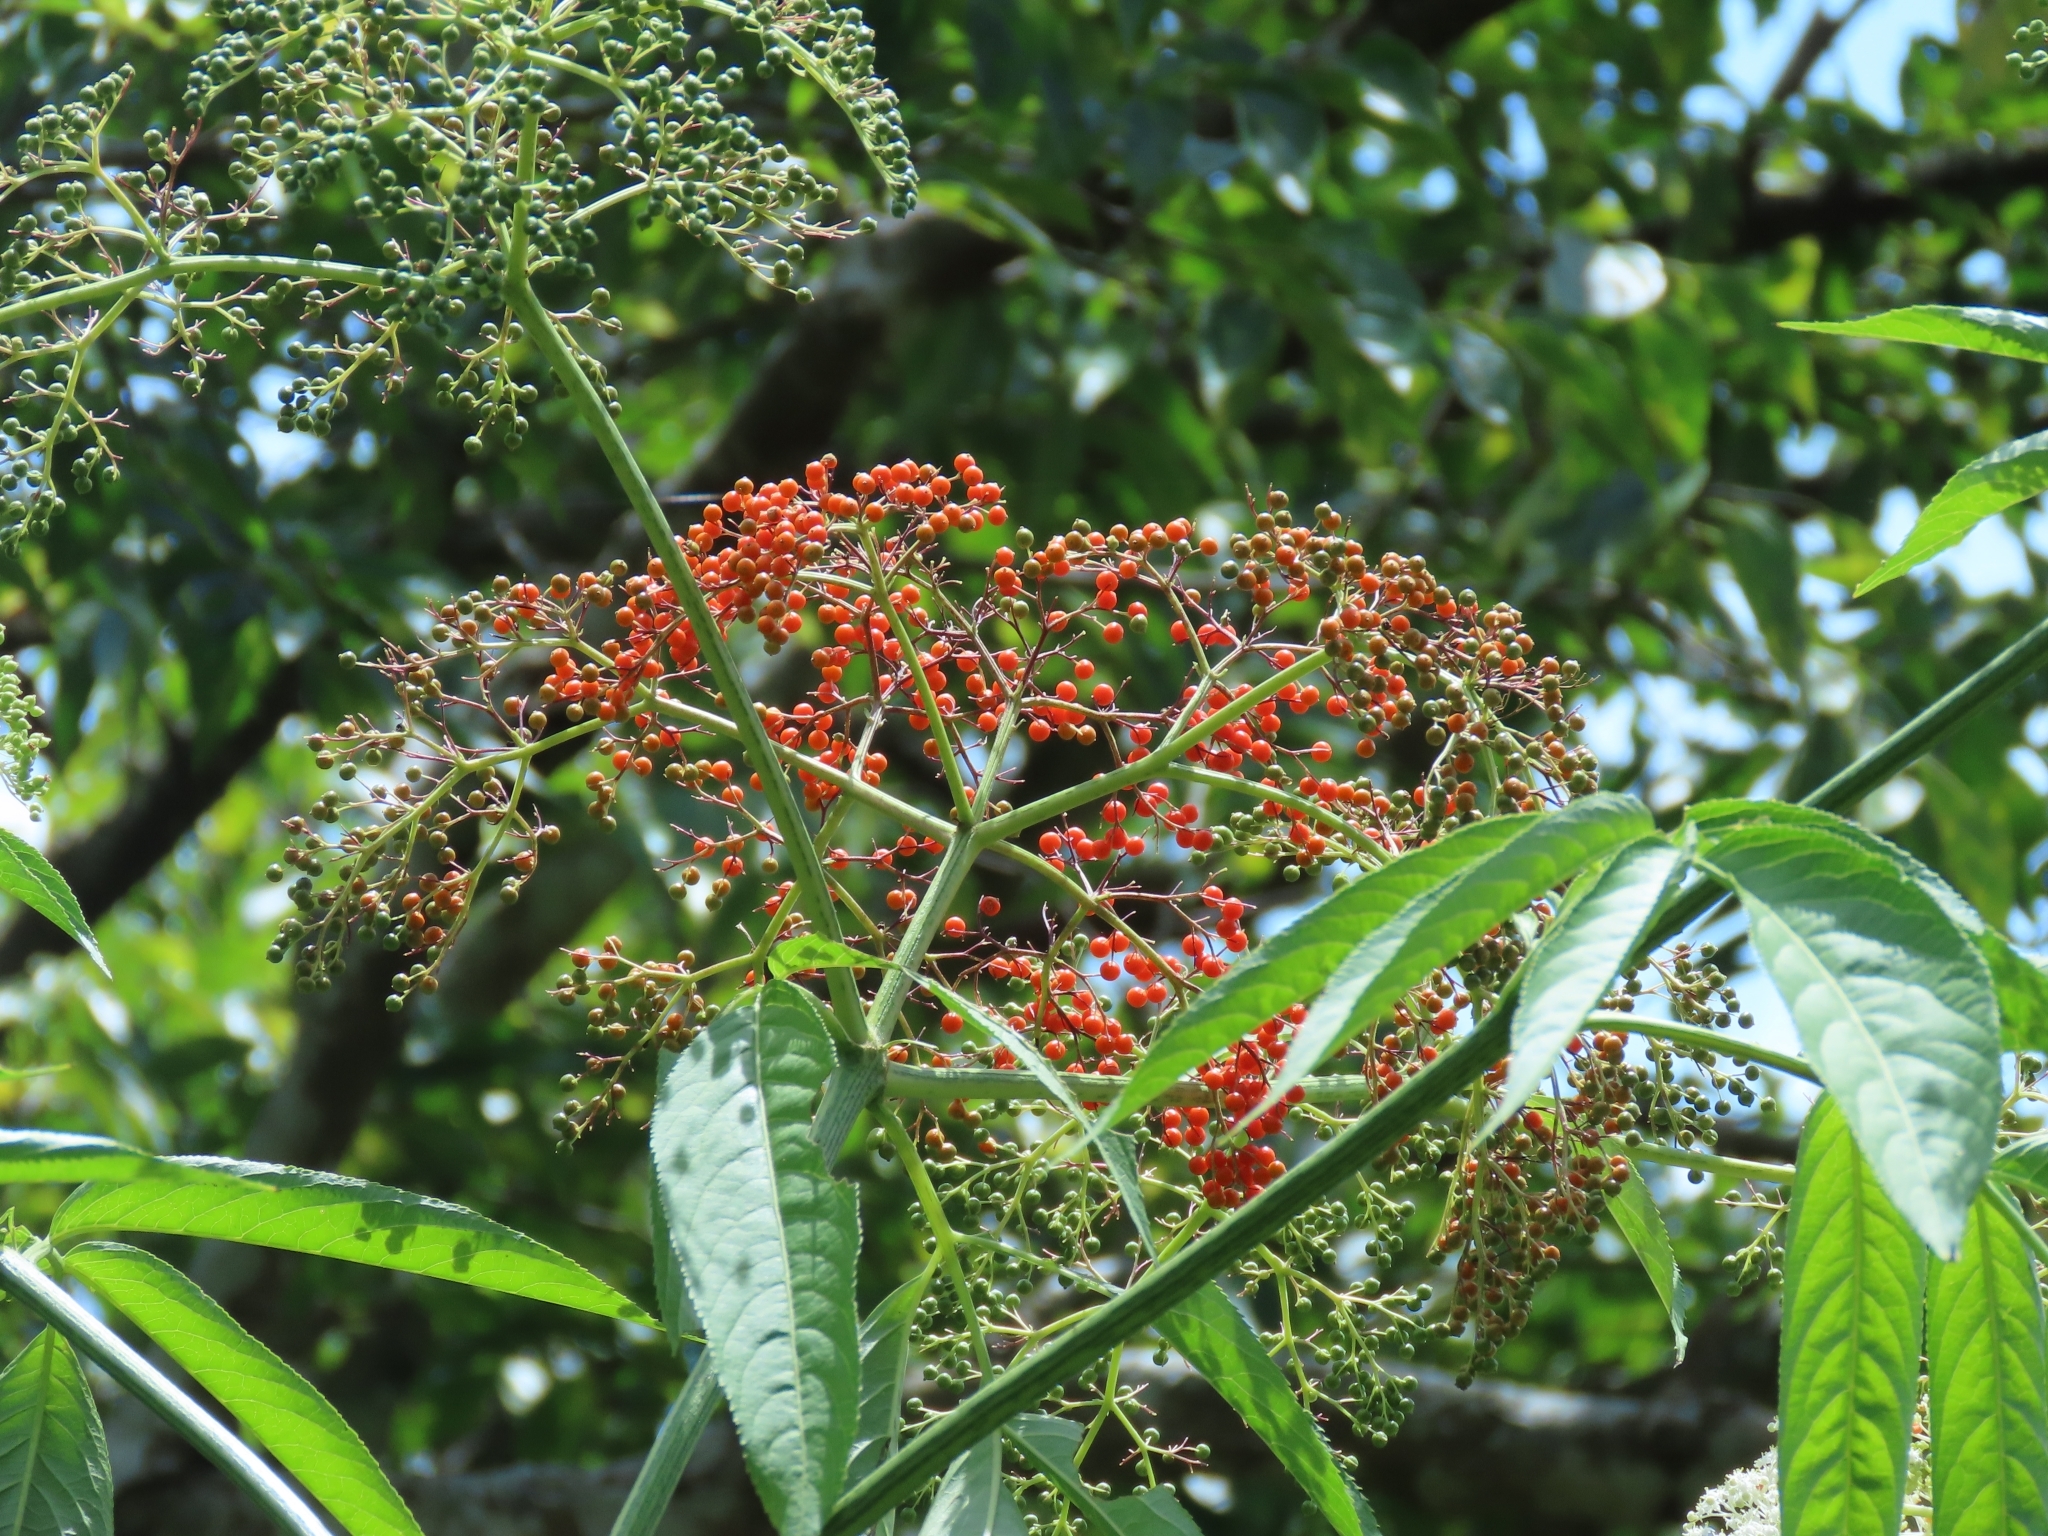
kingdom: Plantae
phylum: Tracheophyta
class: Magnoliopsida
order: Dipsacales
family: Viburnaceae
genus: Sambucus
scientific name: Sambucus javanica
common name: Chinese elder
